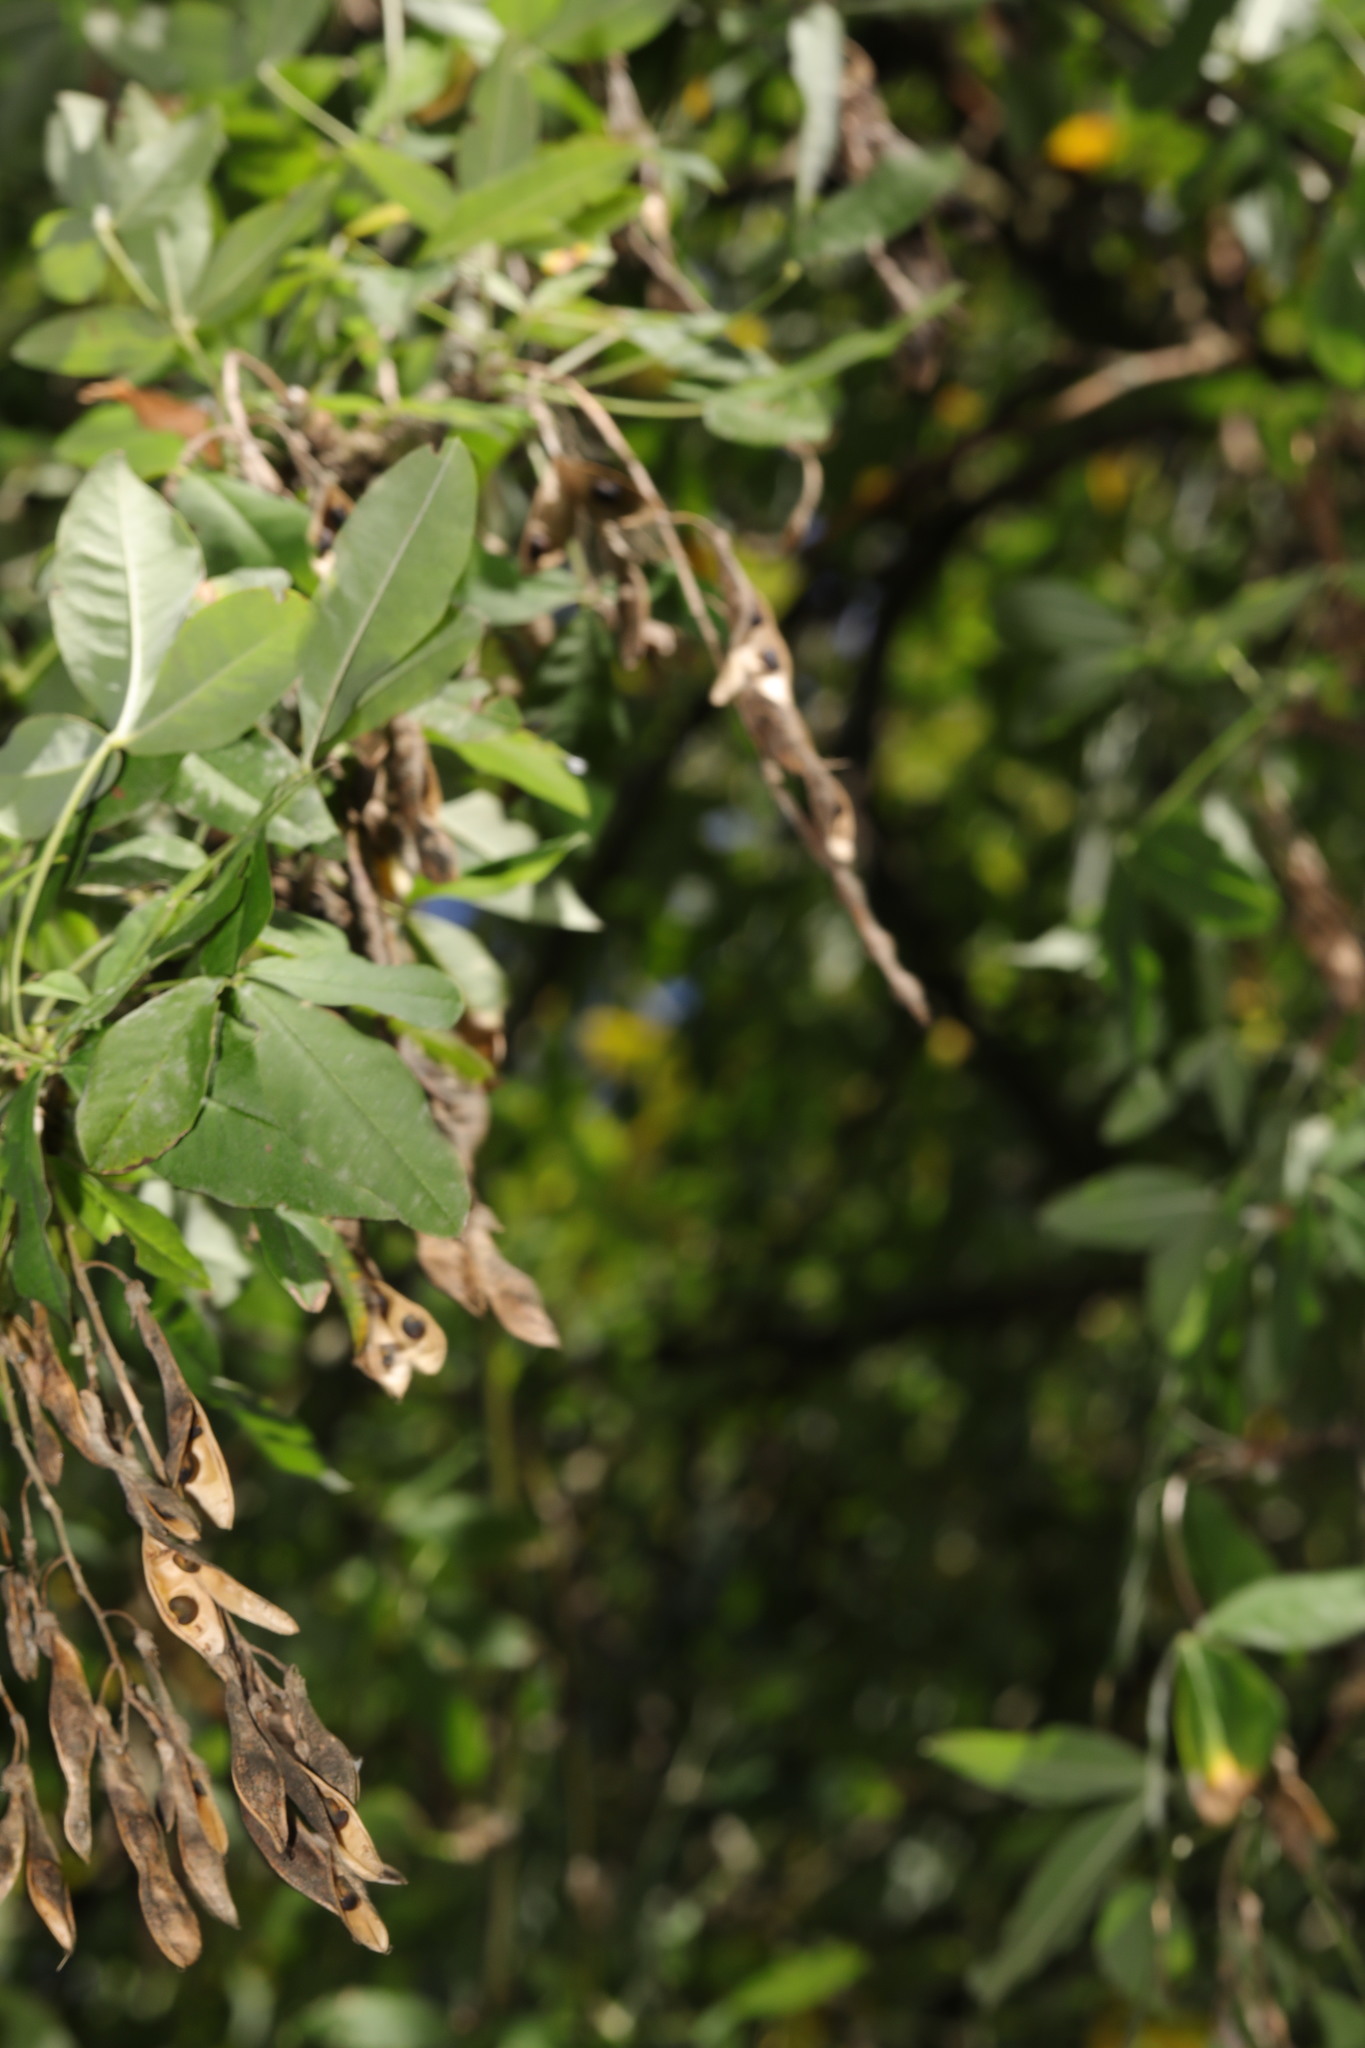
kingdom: Plantae
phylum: Tracheophyta
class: Magnoliopsida
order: Fabales
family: Fabaceae
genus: Laburnum
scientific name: Laburnum anagyroides
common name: Laburnum
